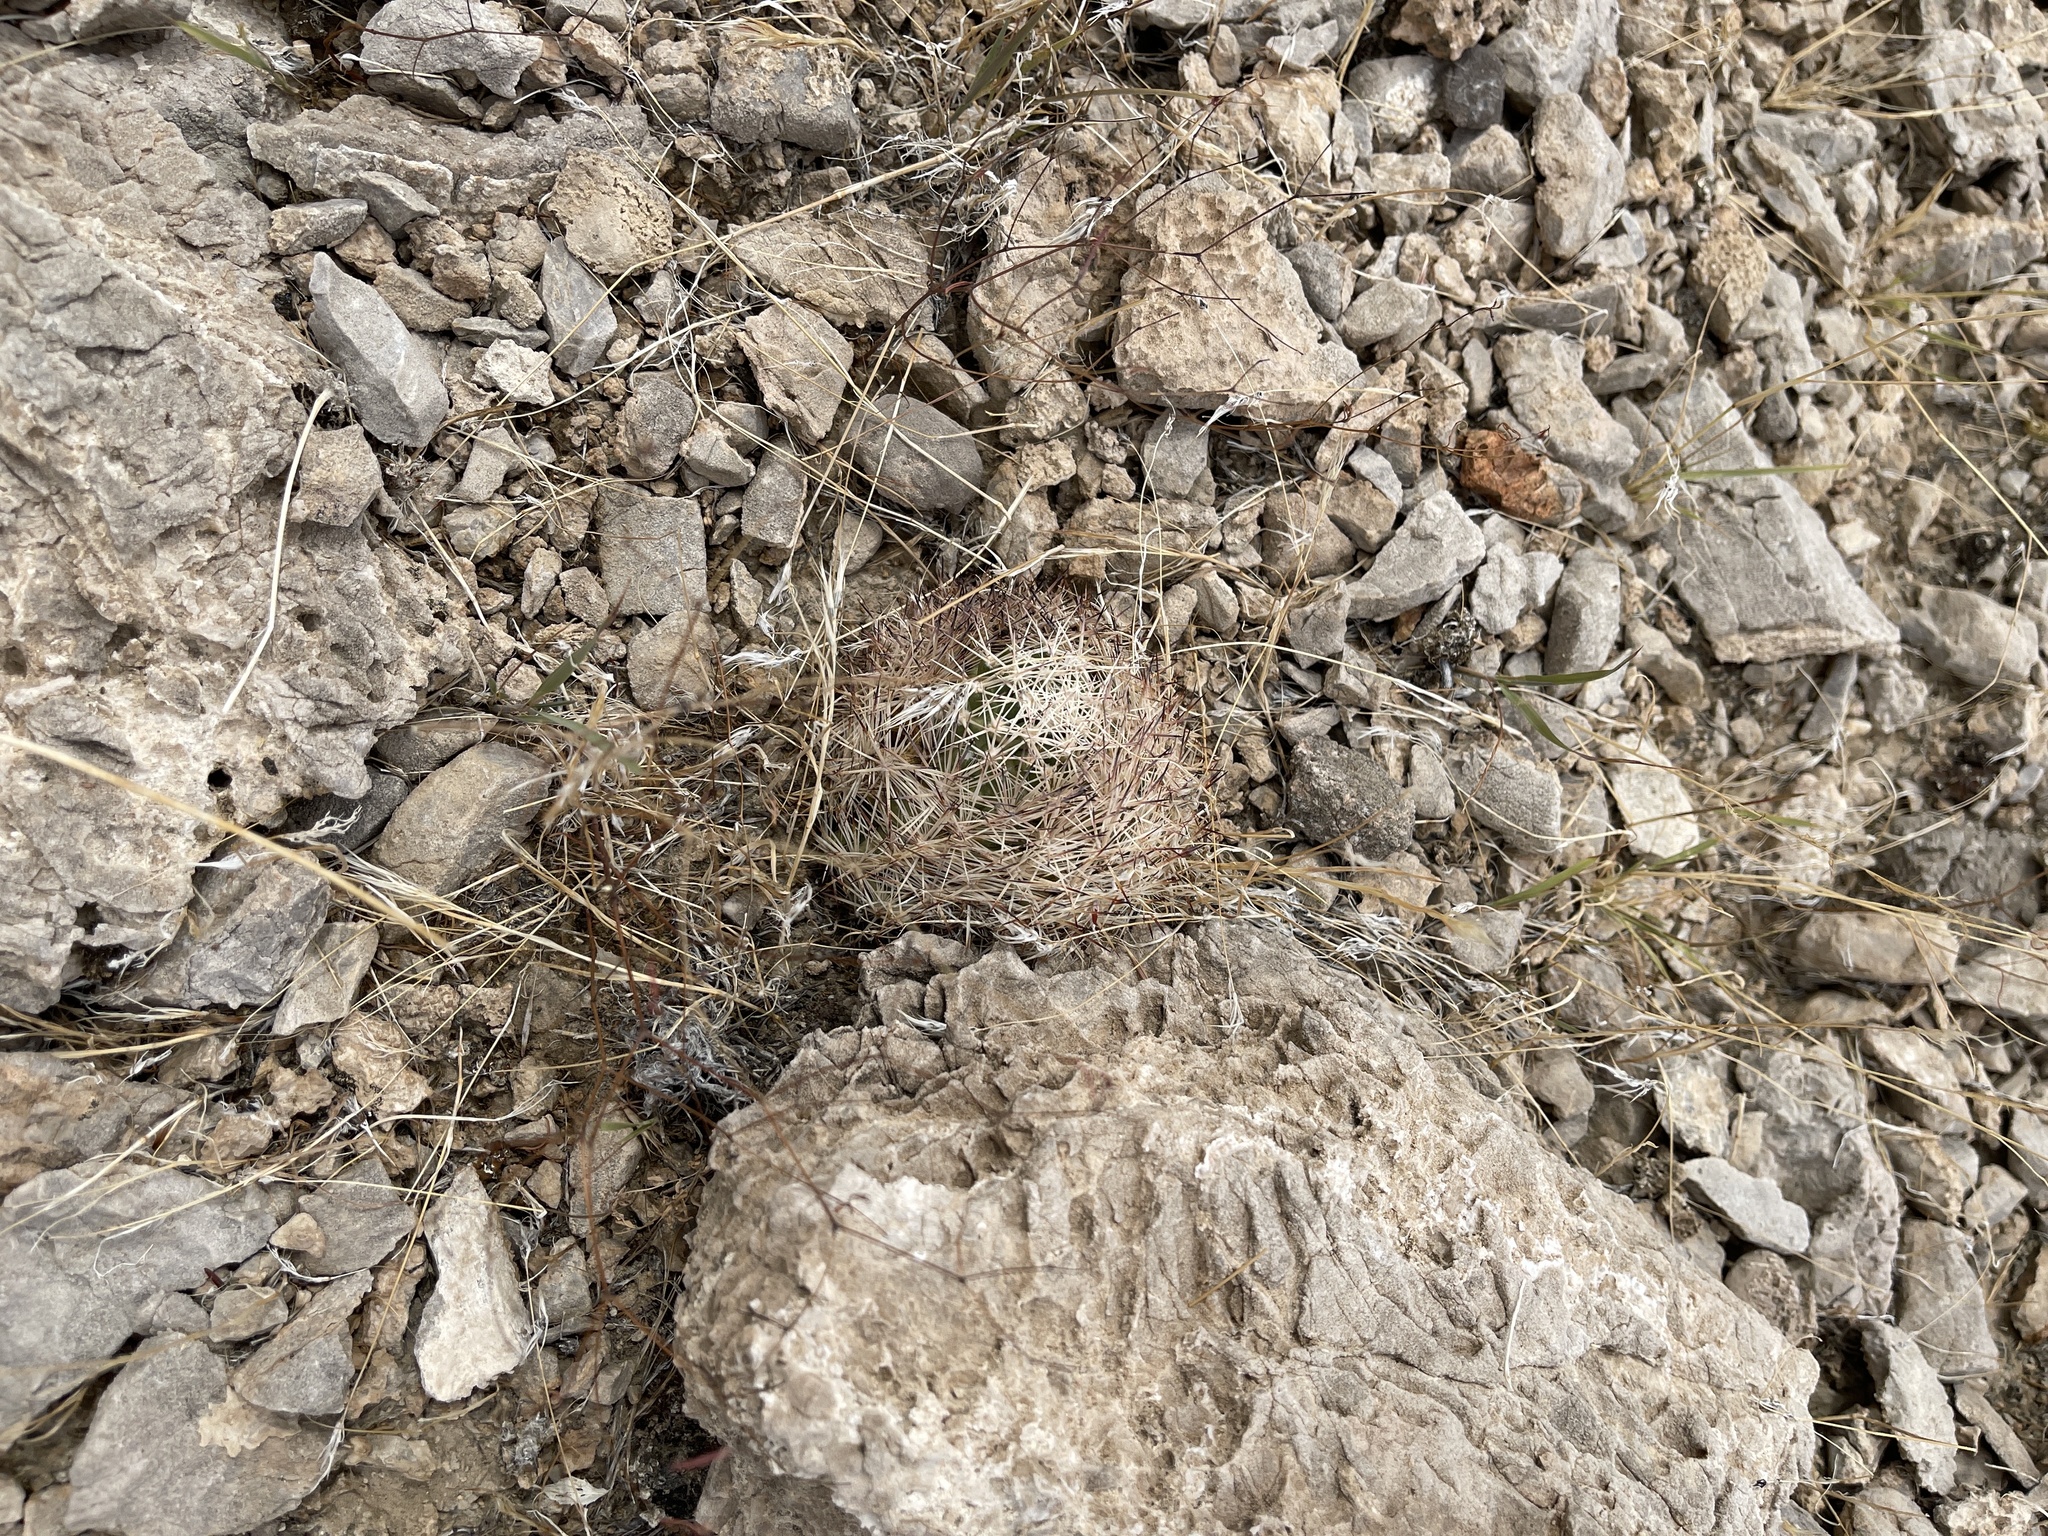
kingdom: Plantae
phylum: Tracheophyta
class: Magnoliopsida
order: Caryophyllales
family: Cactaceae
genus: Pelecyphora
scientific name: Pelecyphora dasyacantha
